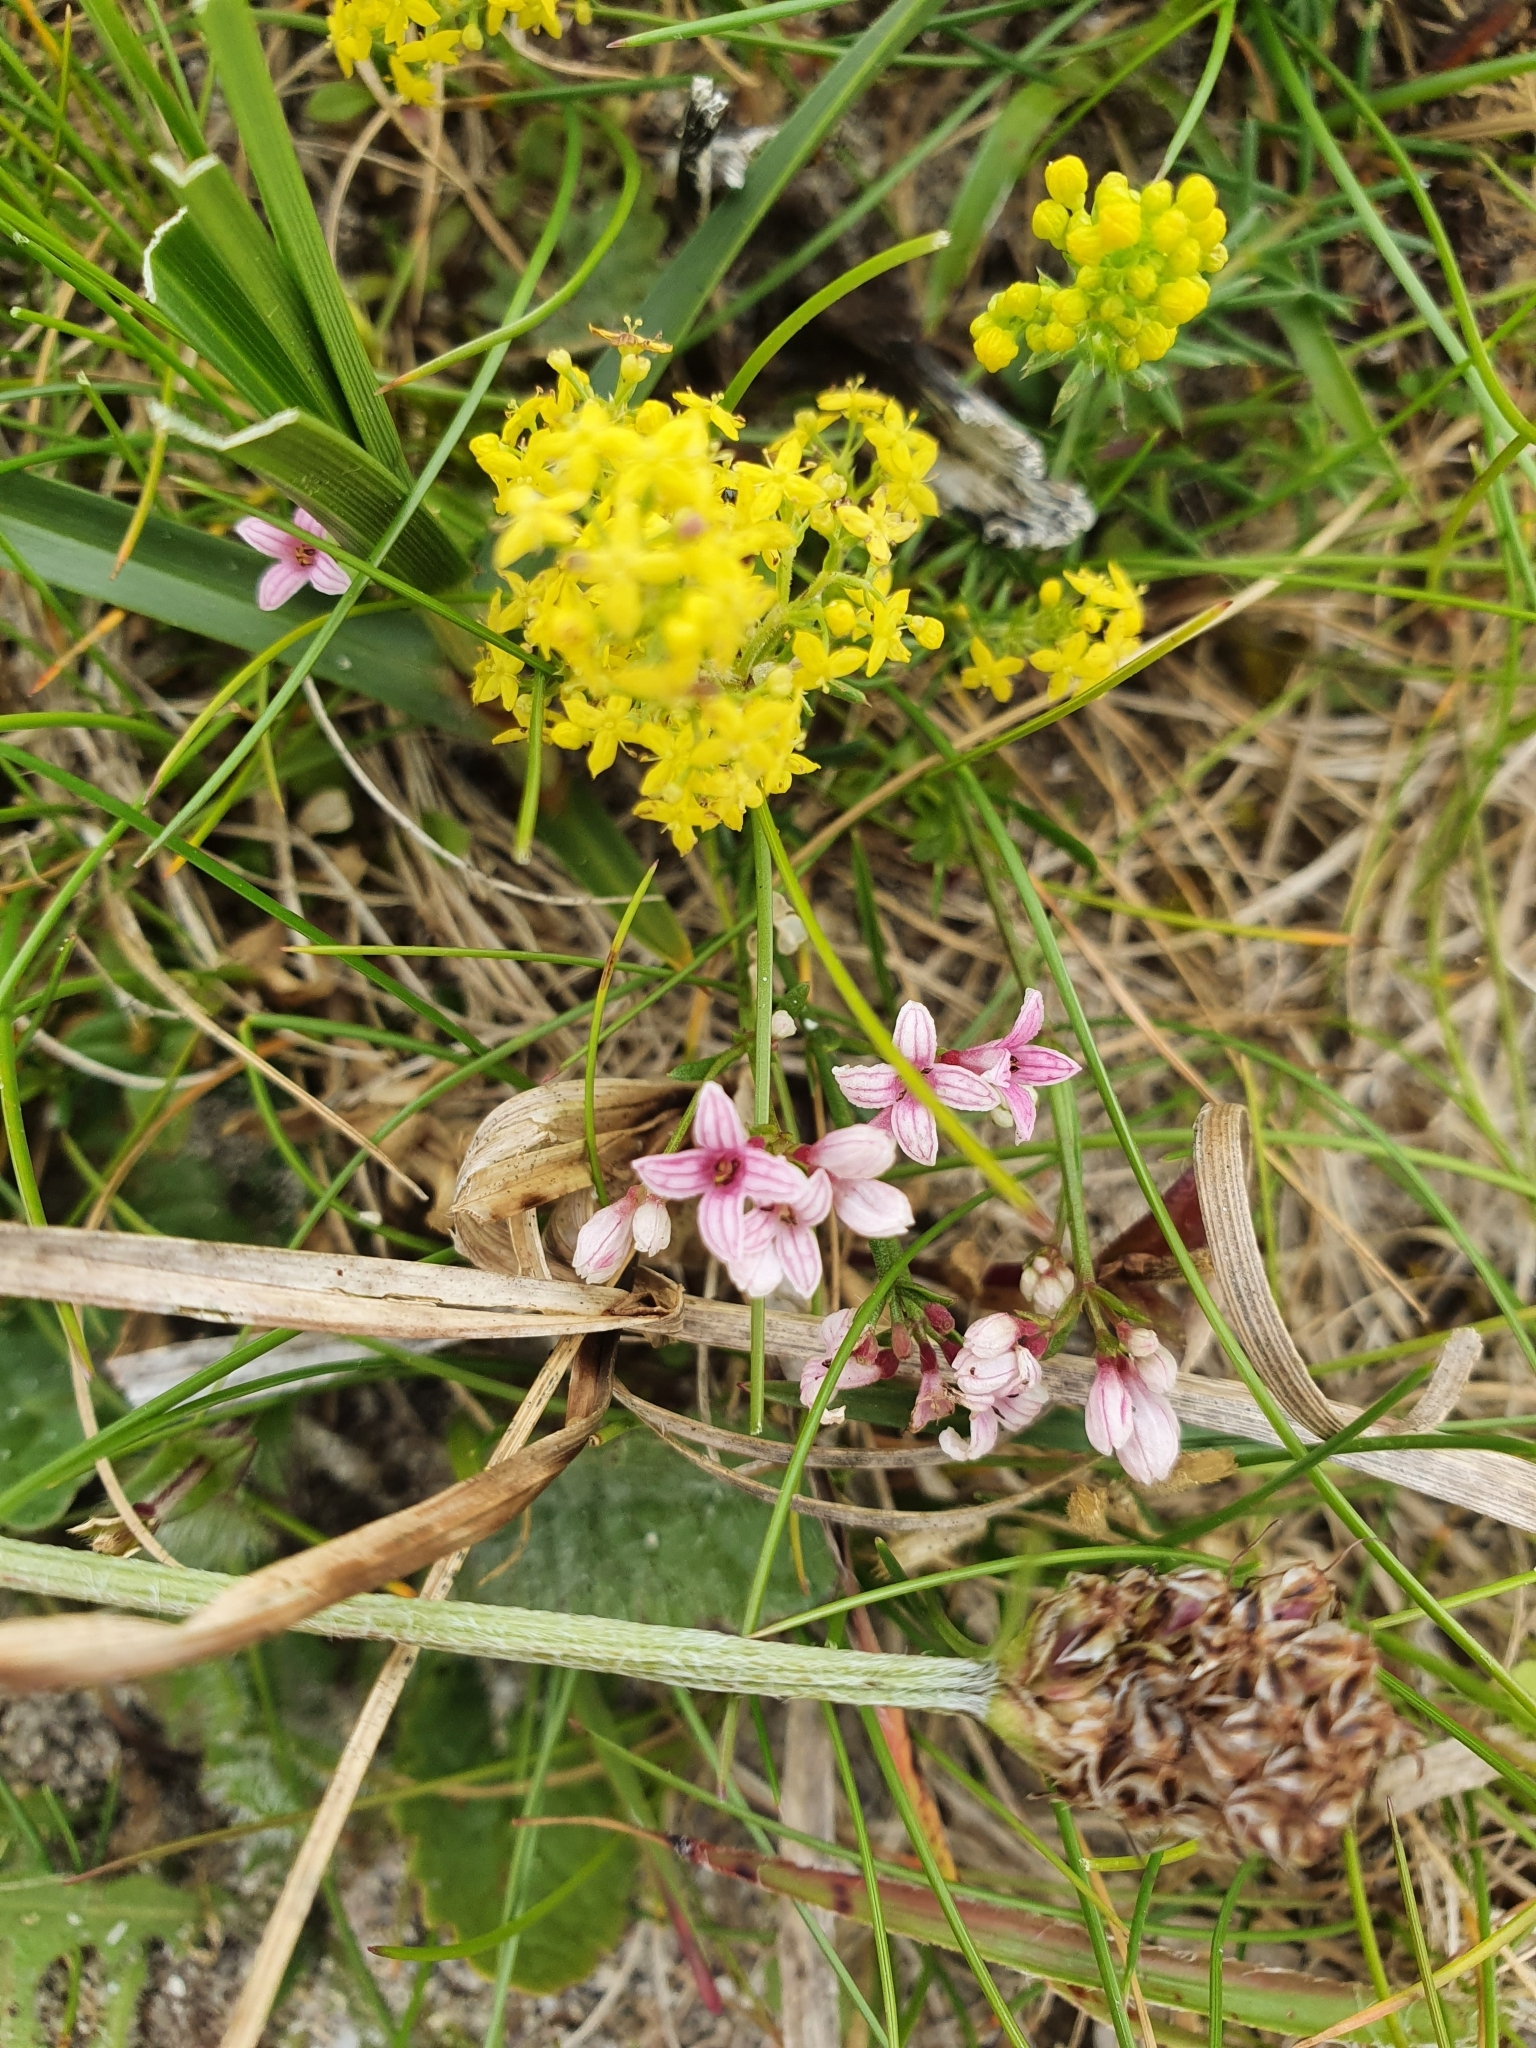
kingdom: Plantae
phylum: Tracheophyta
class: Magnoliopsida
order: Gentianales
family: Rubiaceae
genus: Cynanchica
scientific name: Cynanchica pyrenaica
